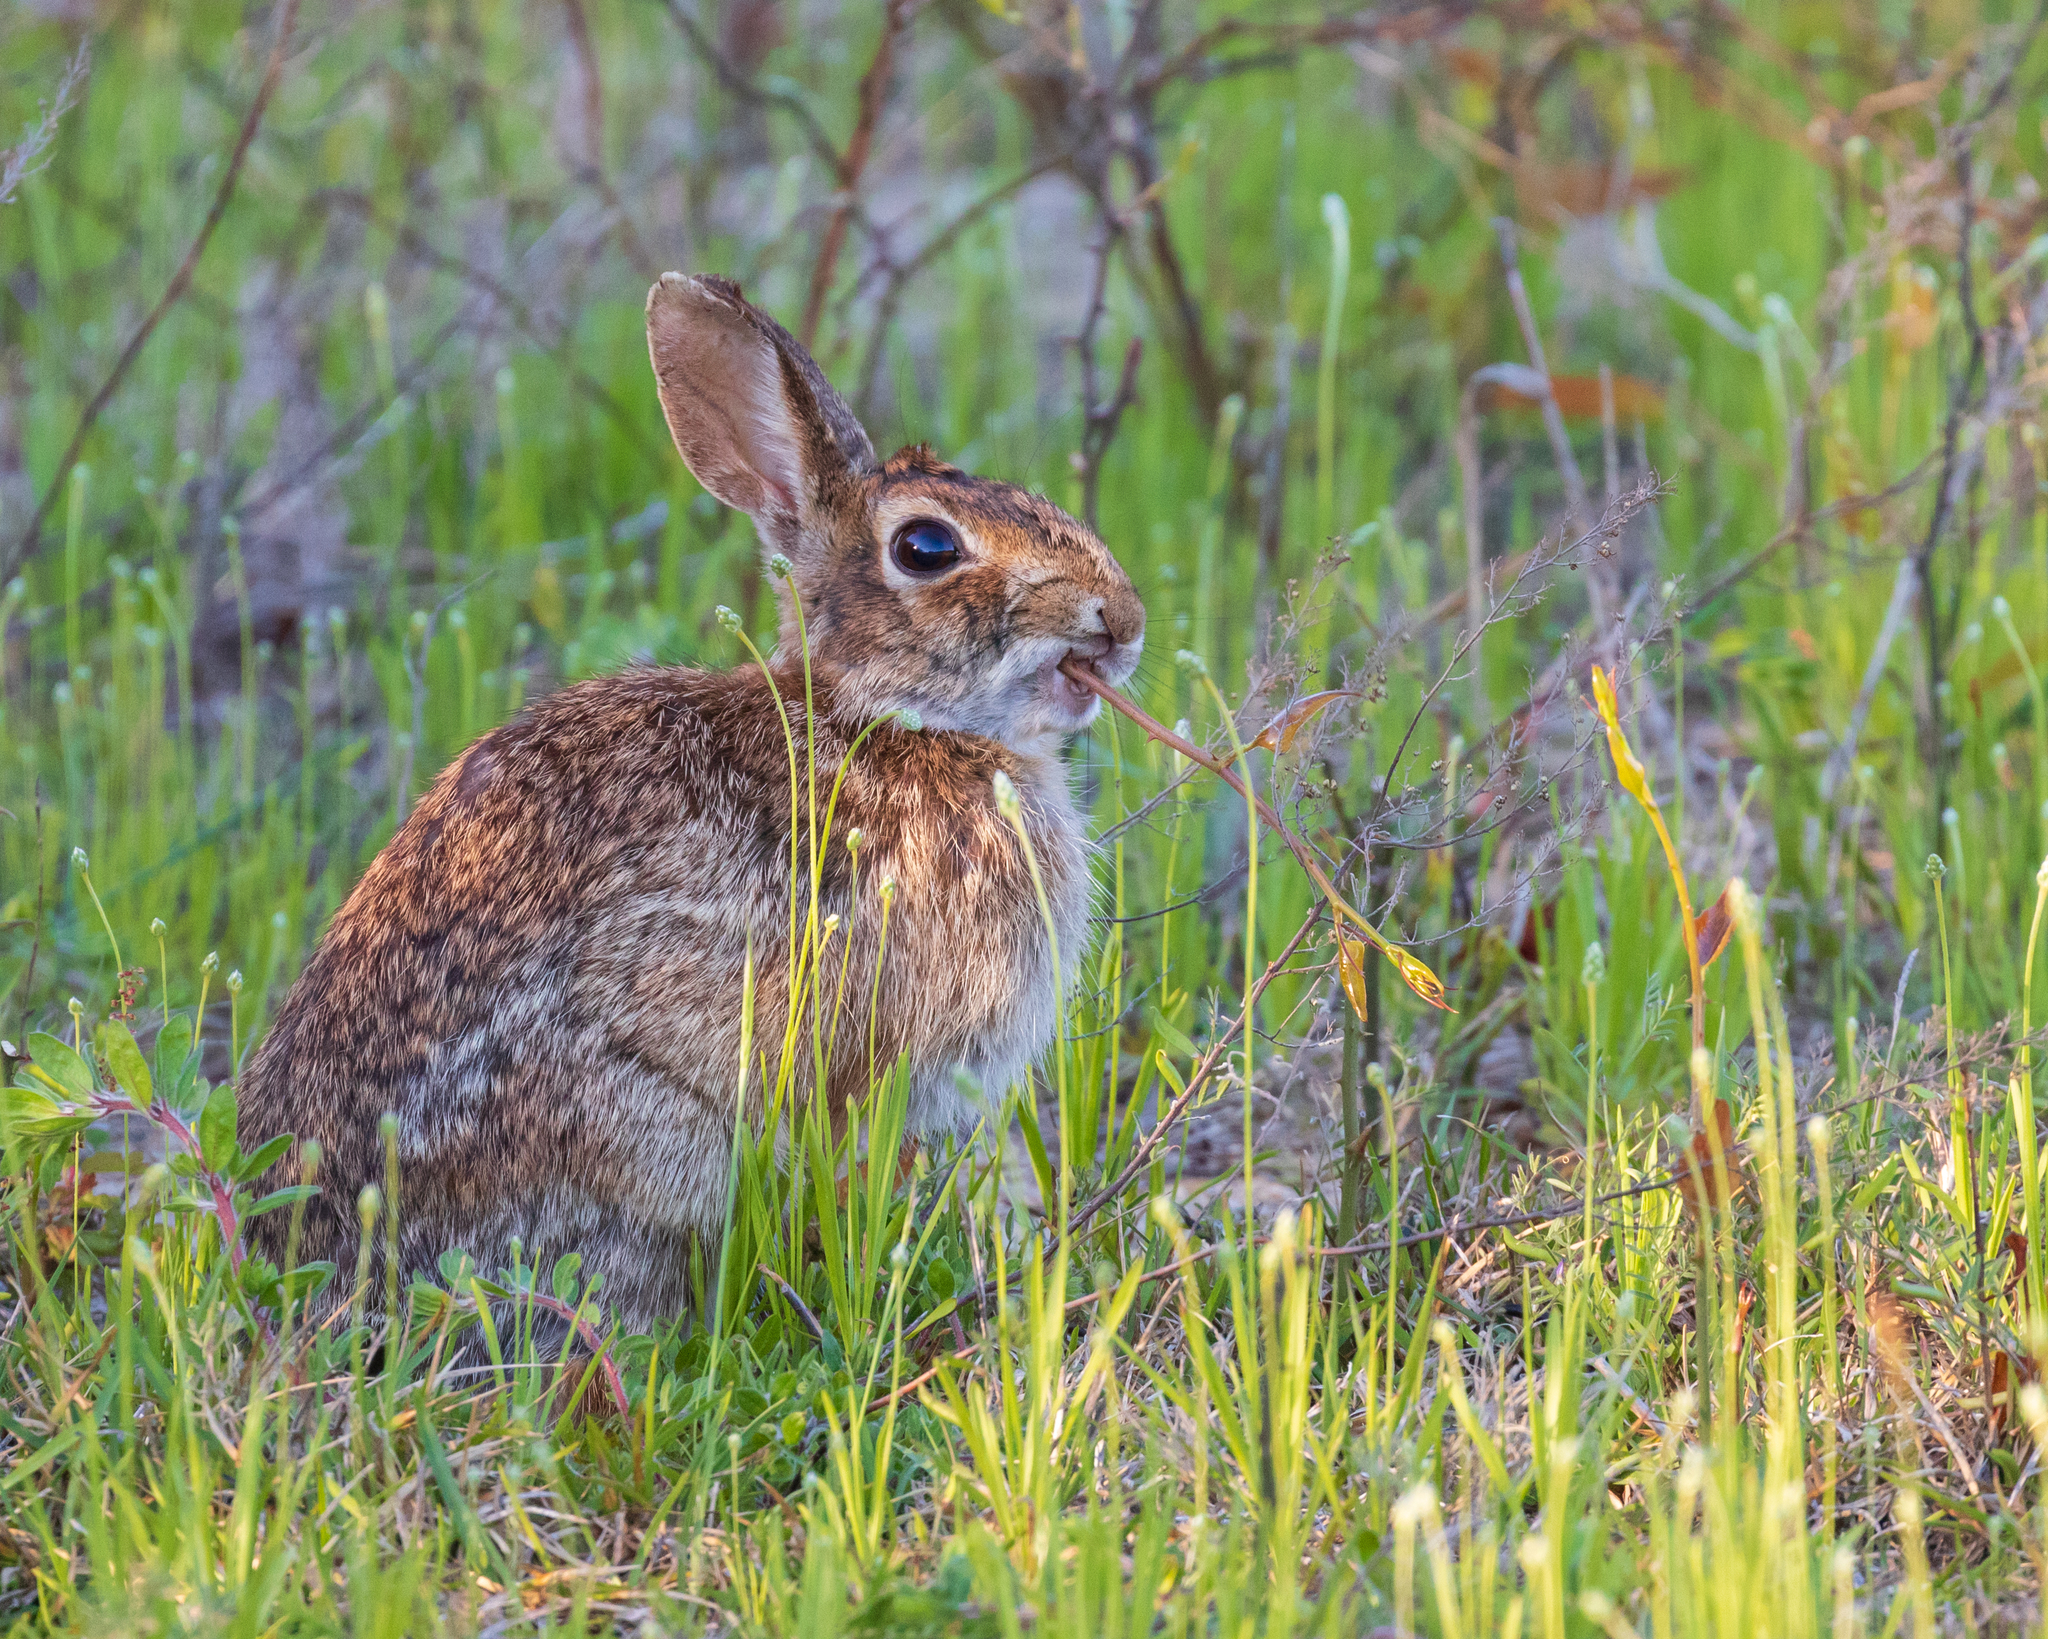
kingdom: Animalia
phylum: Chordata
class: Mammalia
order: Lagomorpha
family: Leporidae
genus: Sylvilagus
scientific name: Sylvilagus floridanus
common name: Eastern cottontail
